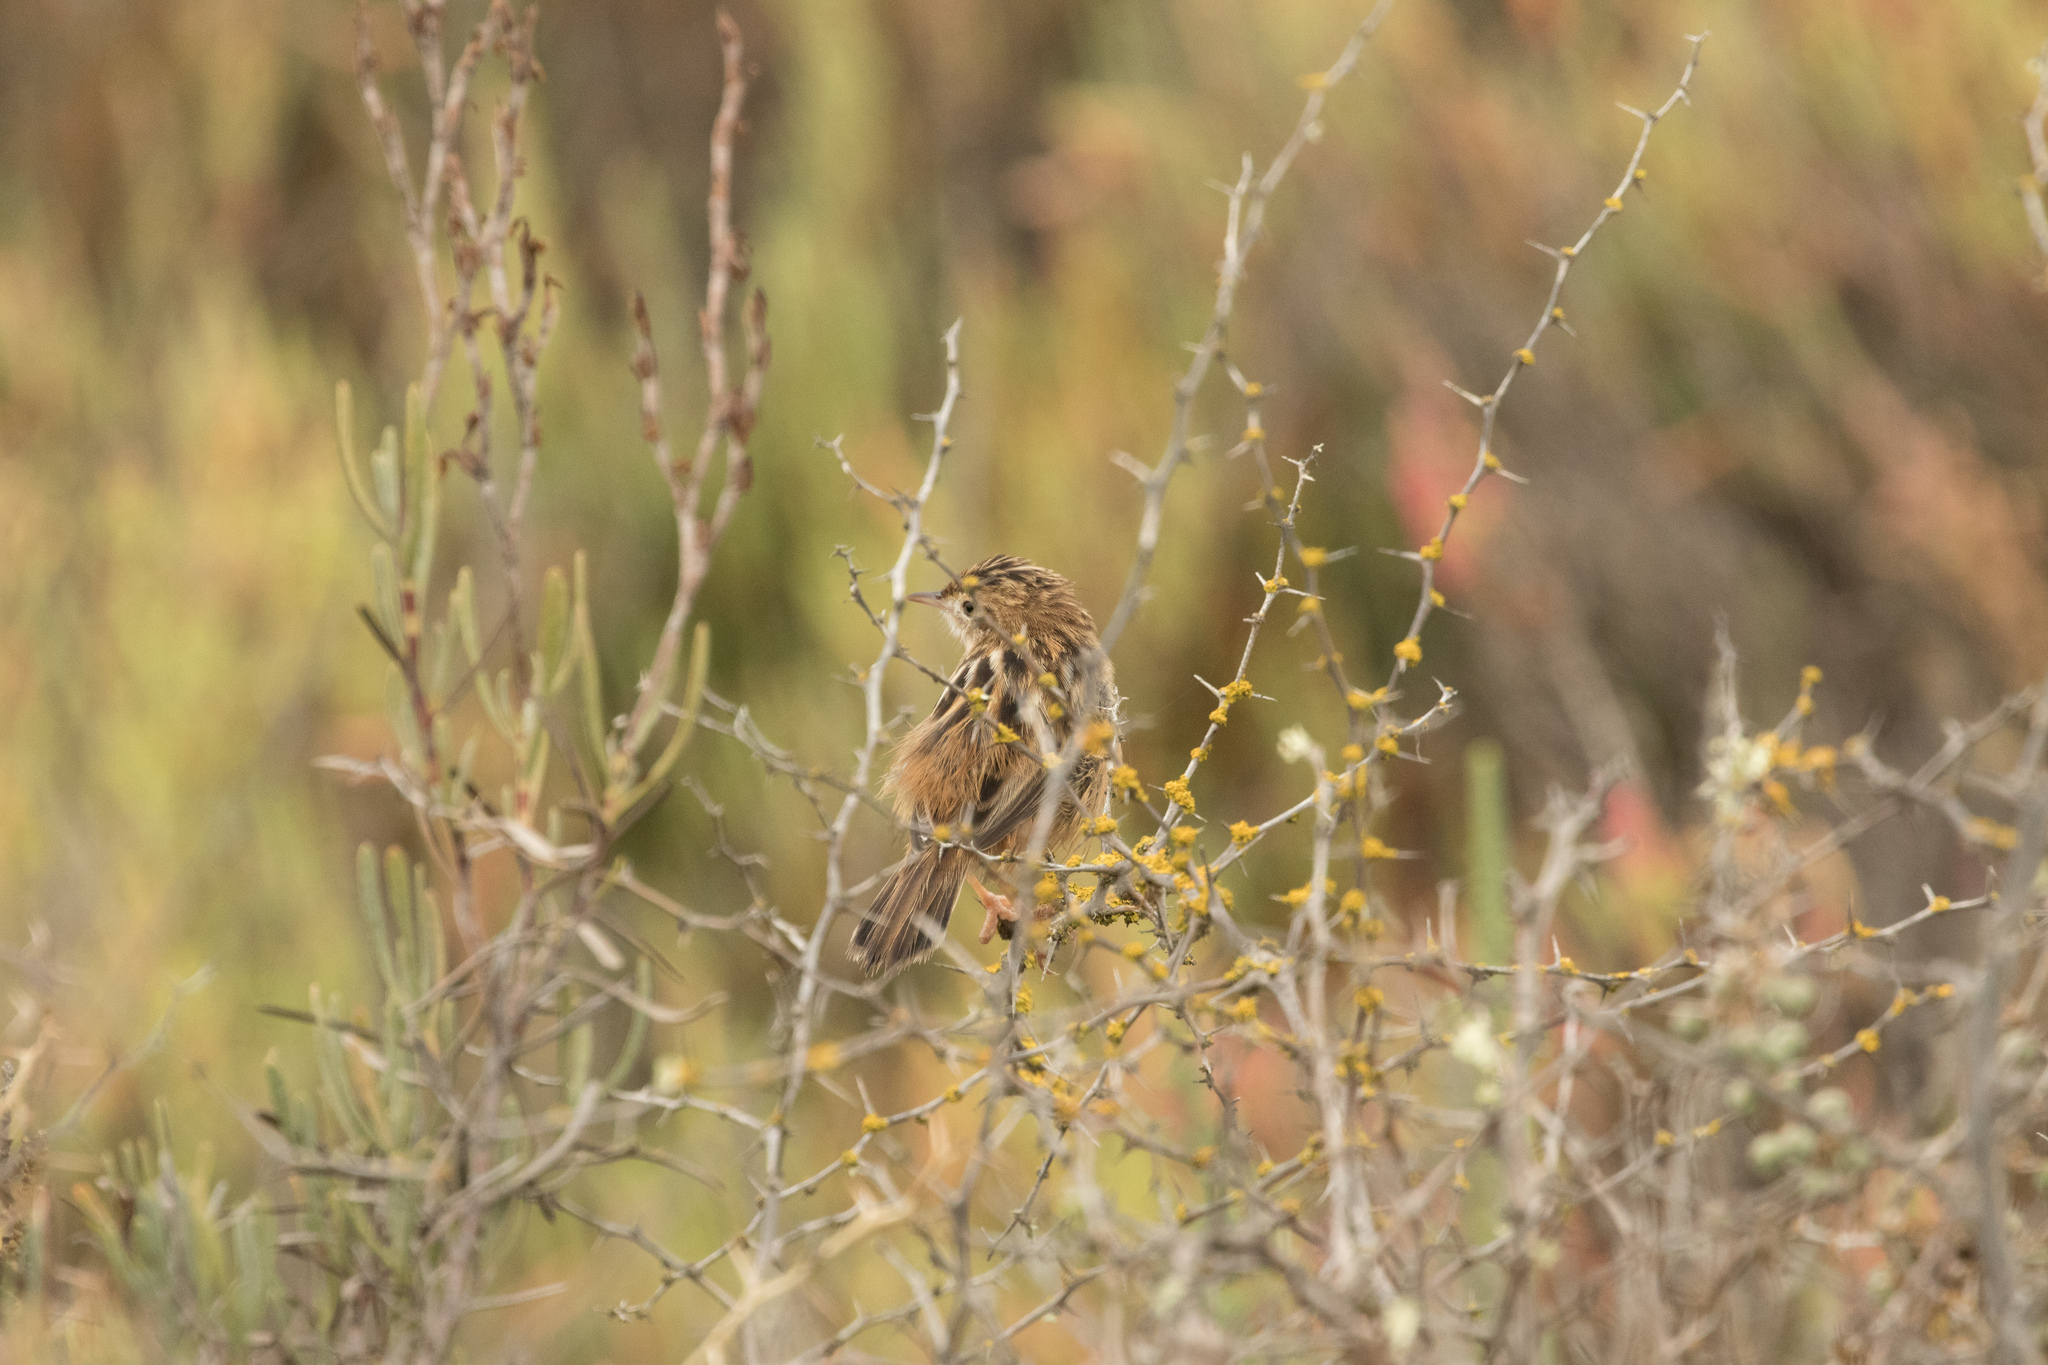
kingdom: Animalia
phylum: Chordata
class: Aves
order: Passeriformes
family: Cisticolidae
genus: Cisticola
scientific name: Cisticola juncidis
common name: Zitting cisticola
